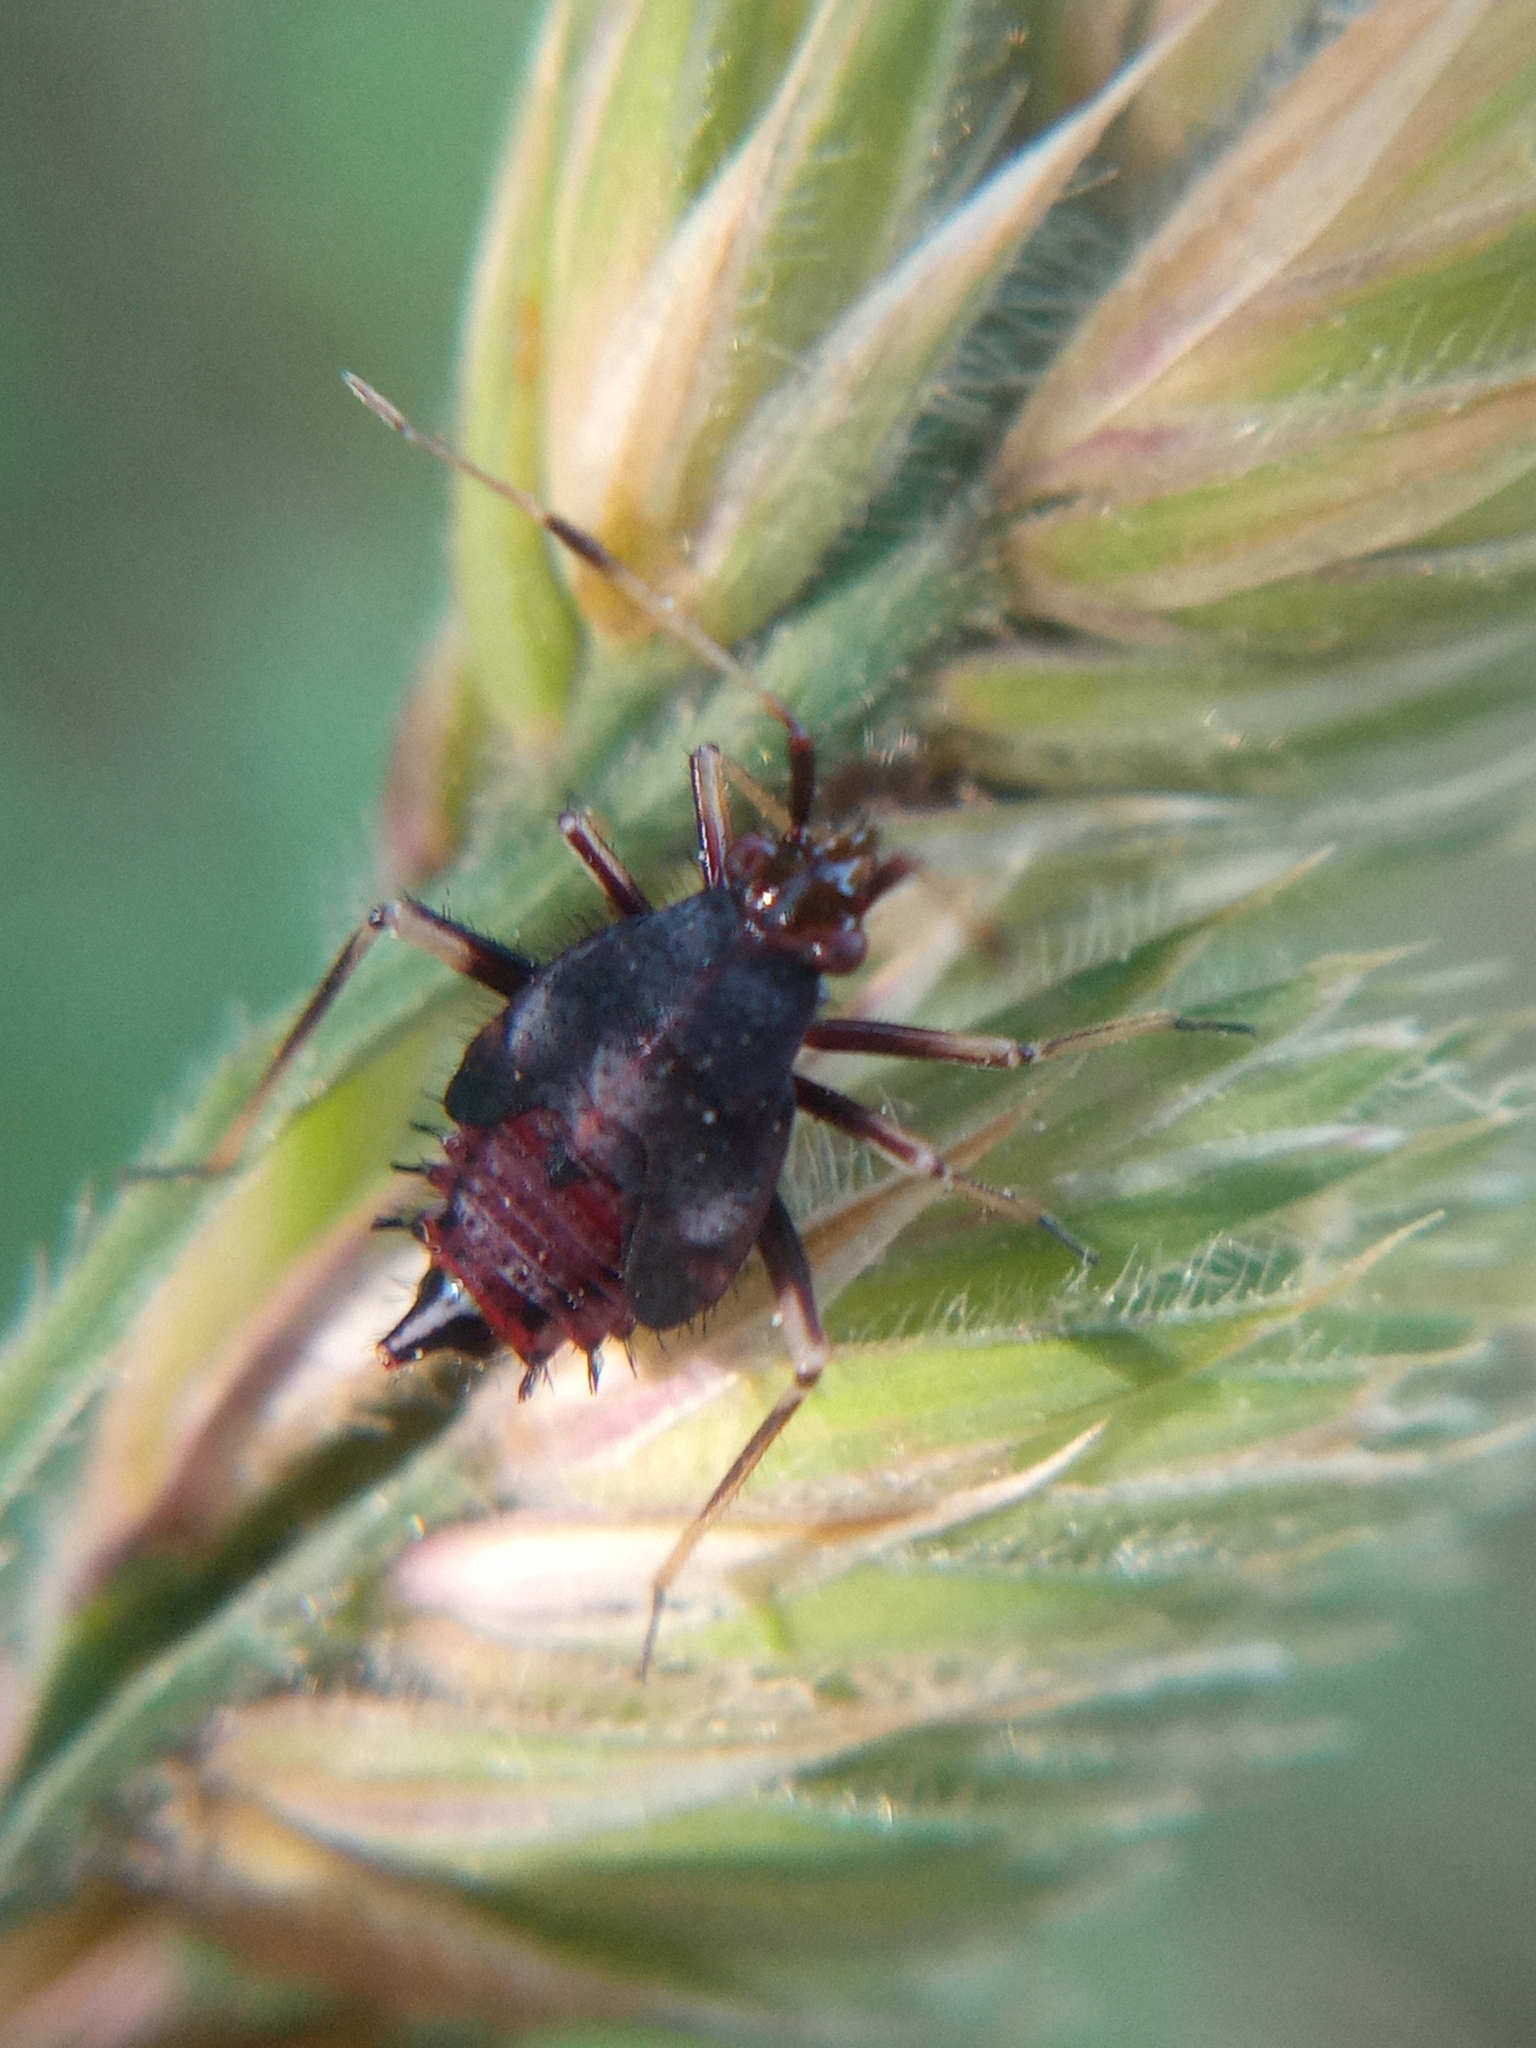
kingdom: Animalia
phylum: Arthropoda
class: Insecta
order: Hemiptera
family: Miridae
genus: Deraeocoris
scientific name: Deraeocoris ruber
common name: Plant bug
